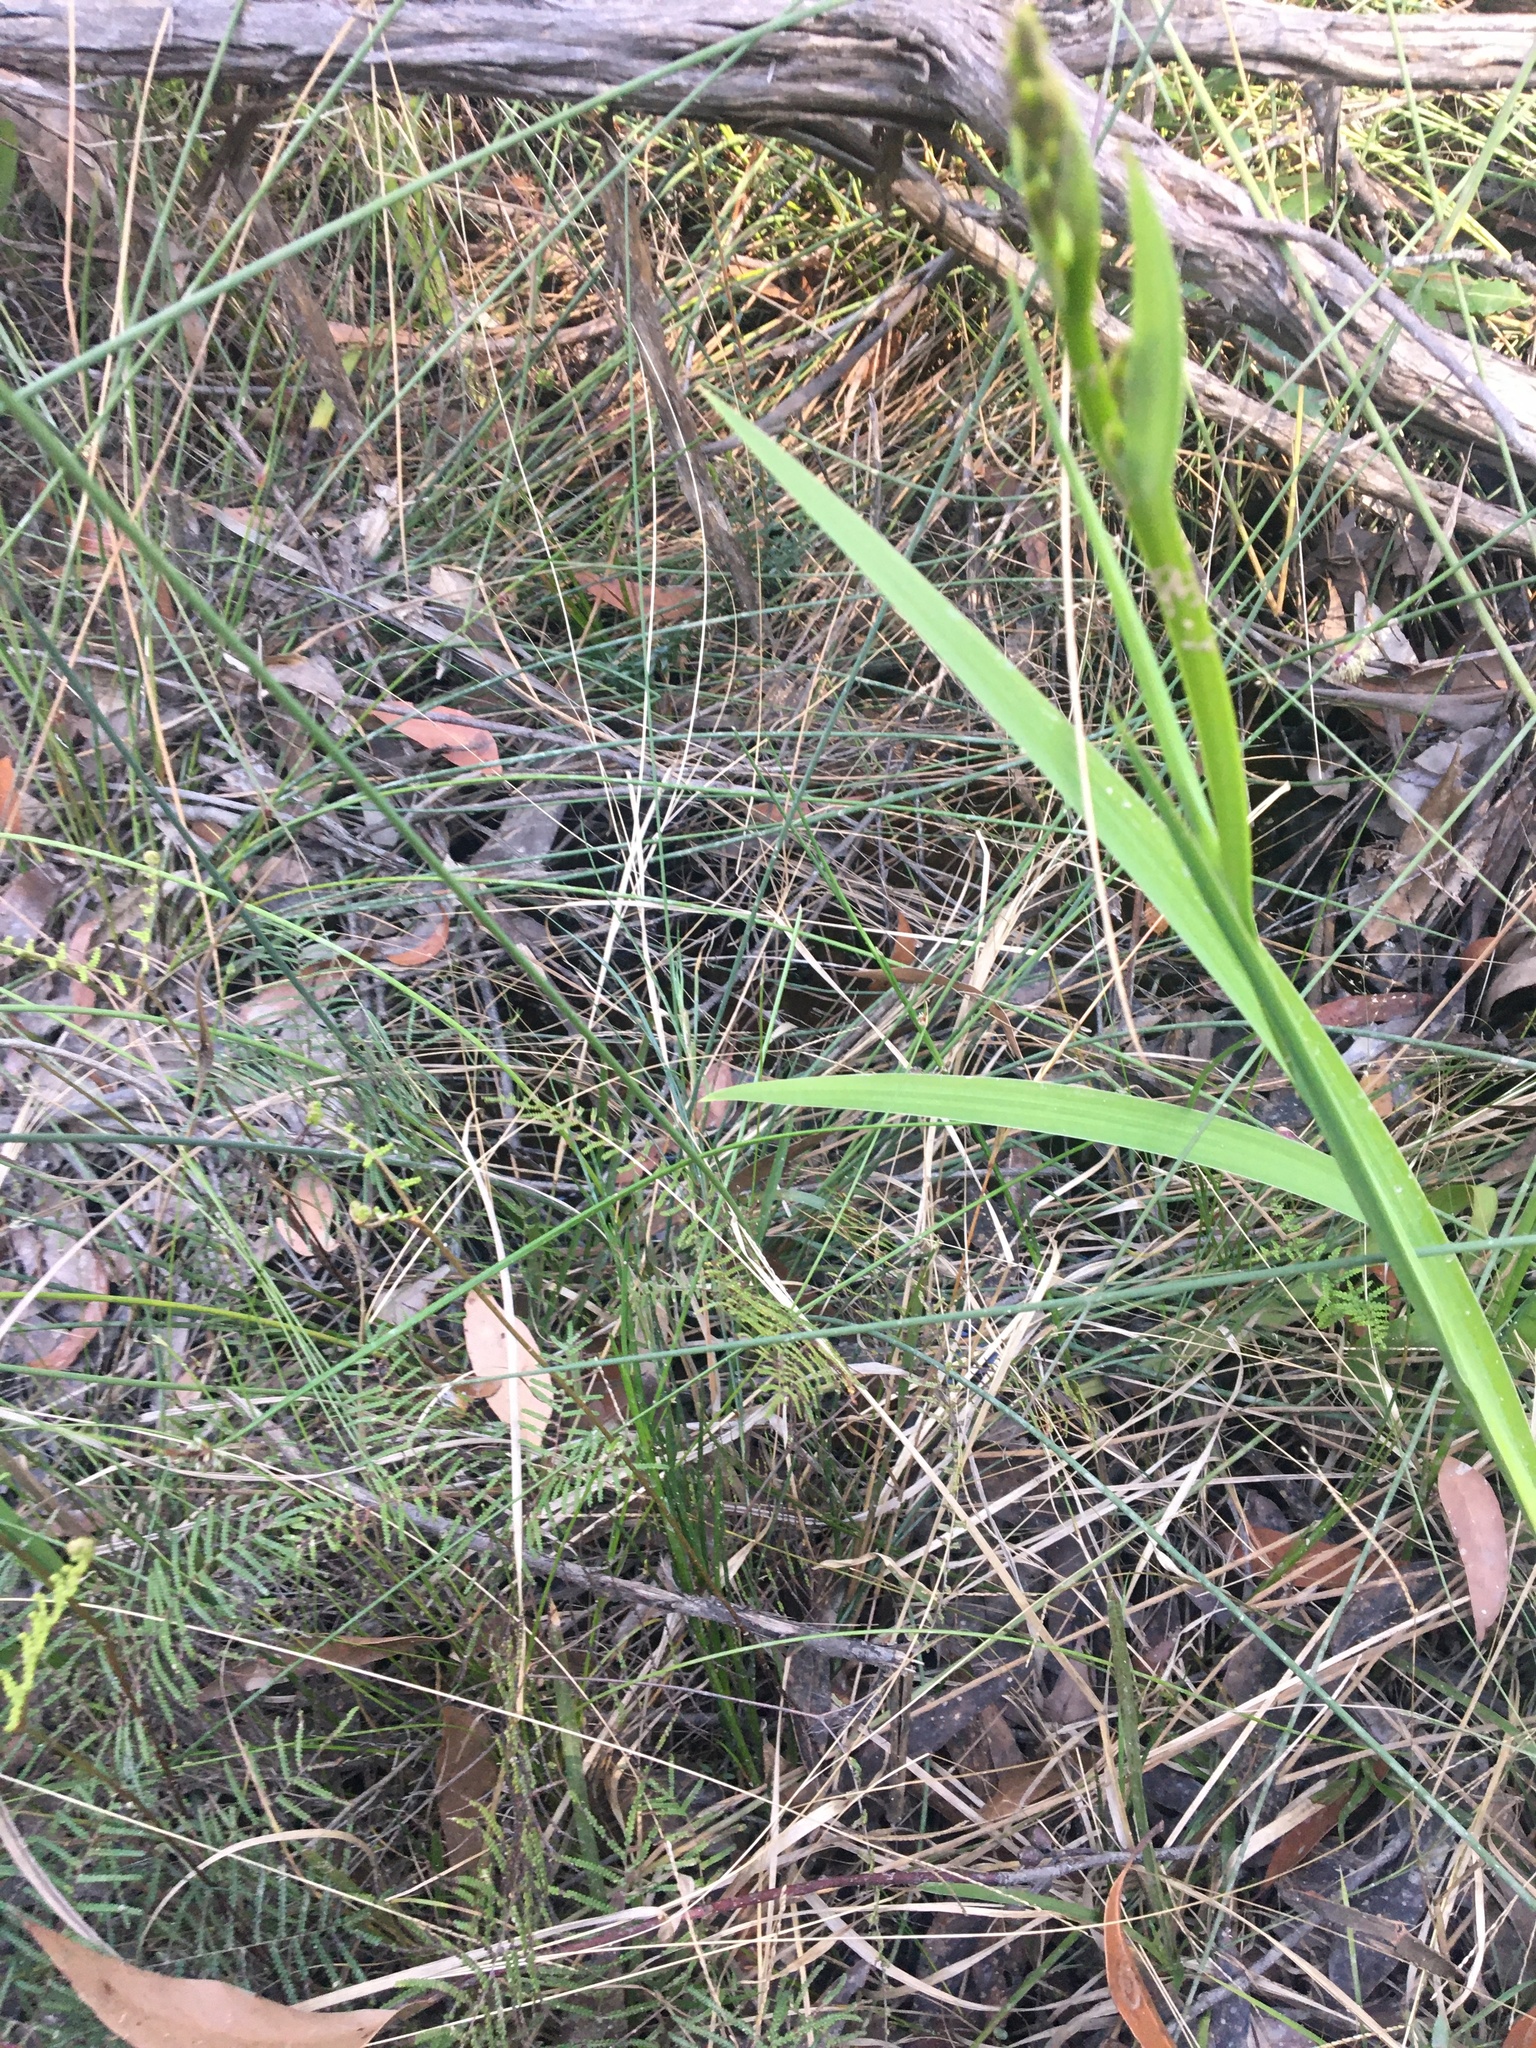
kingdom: Plantae
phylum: Tracheophyta
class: Liliopsida
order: Poales
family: Cyperaceae
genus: Chorizandra
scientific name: Chorizandra cymbaria
